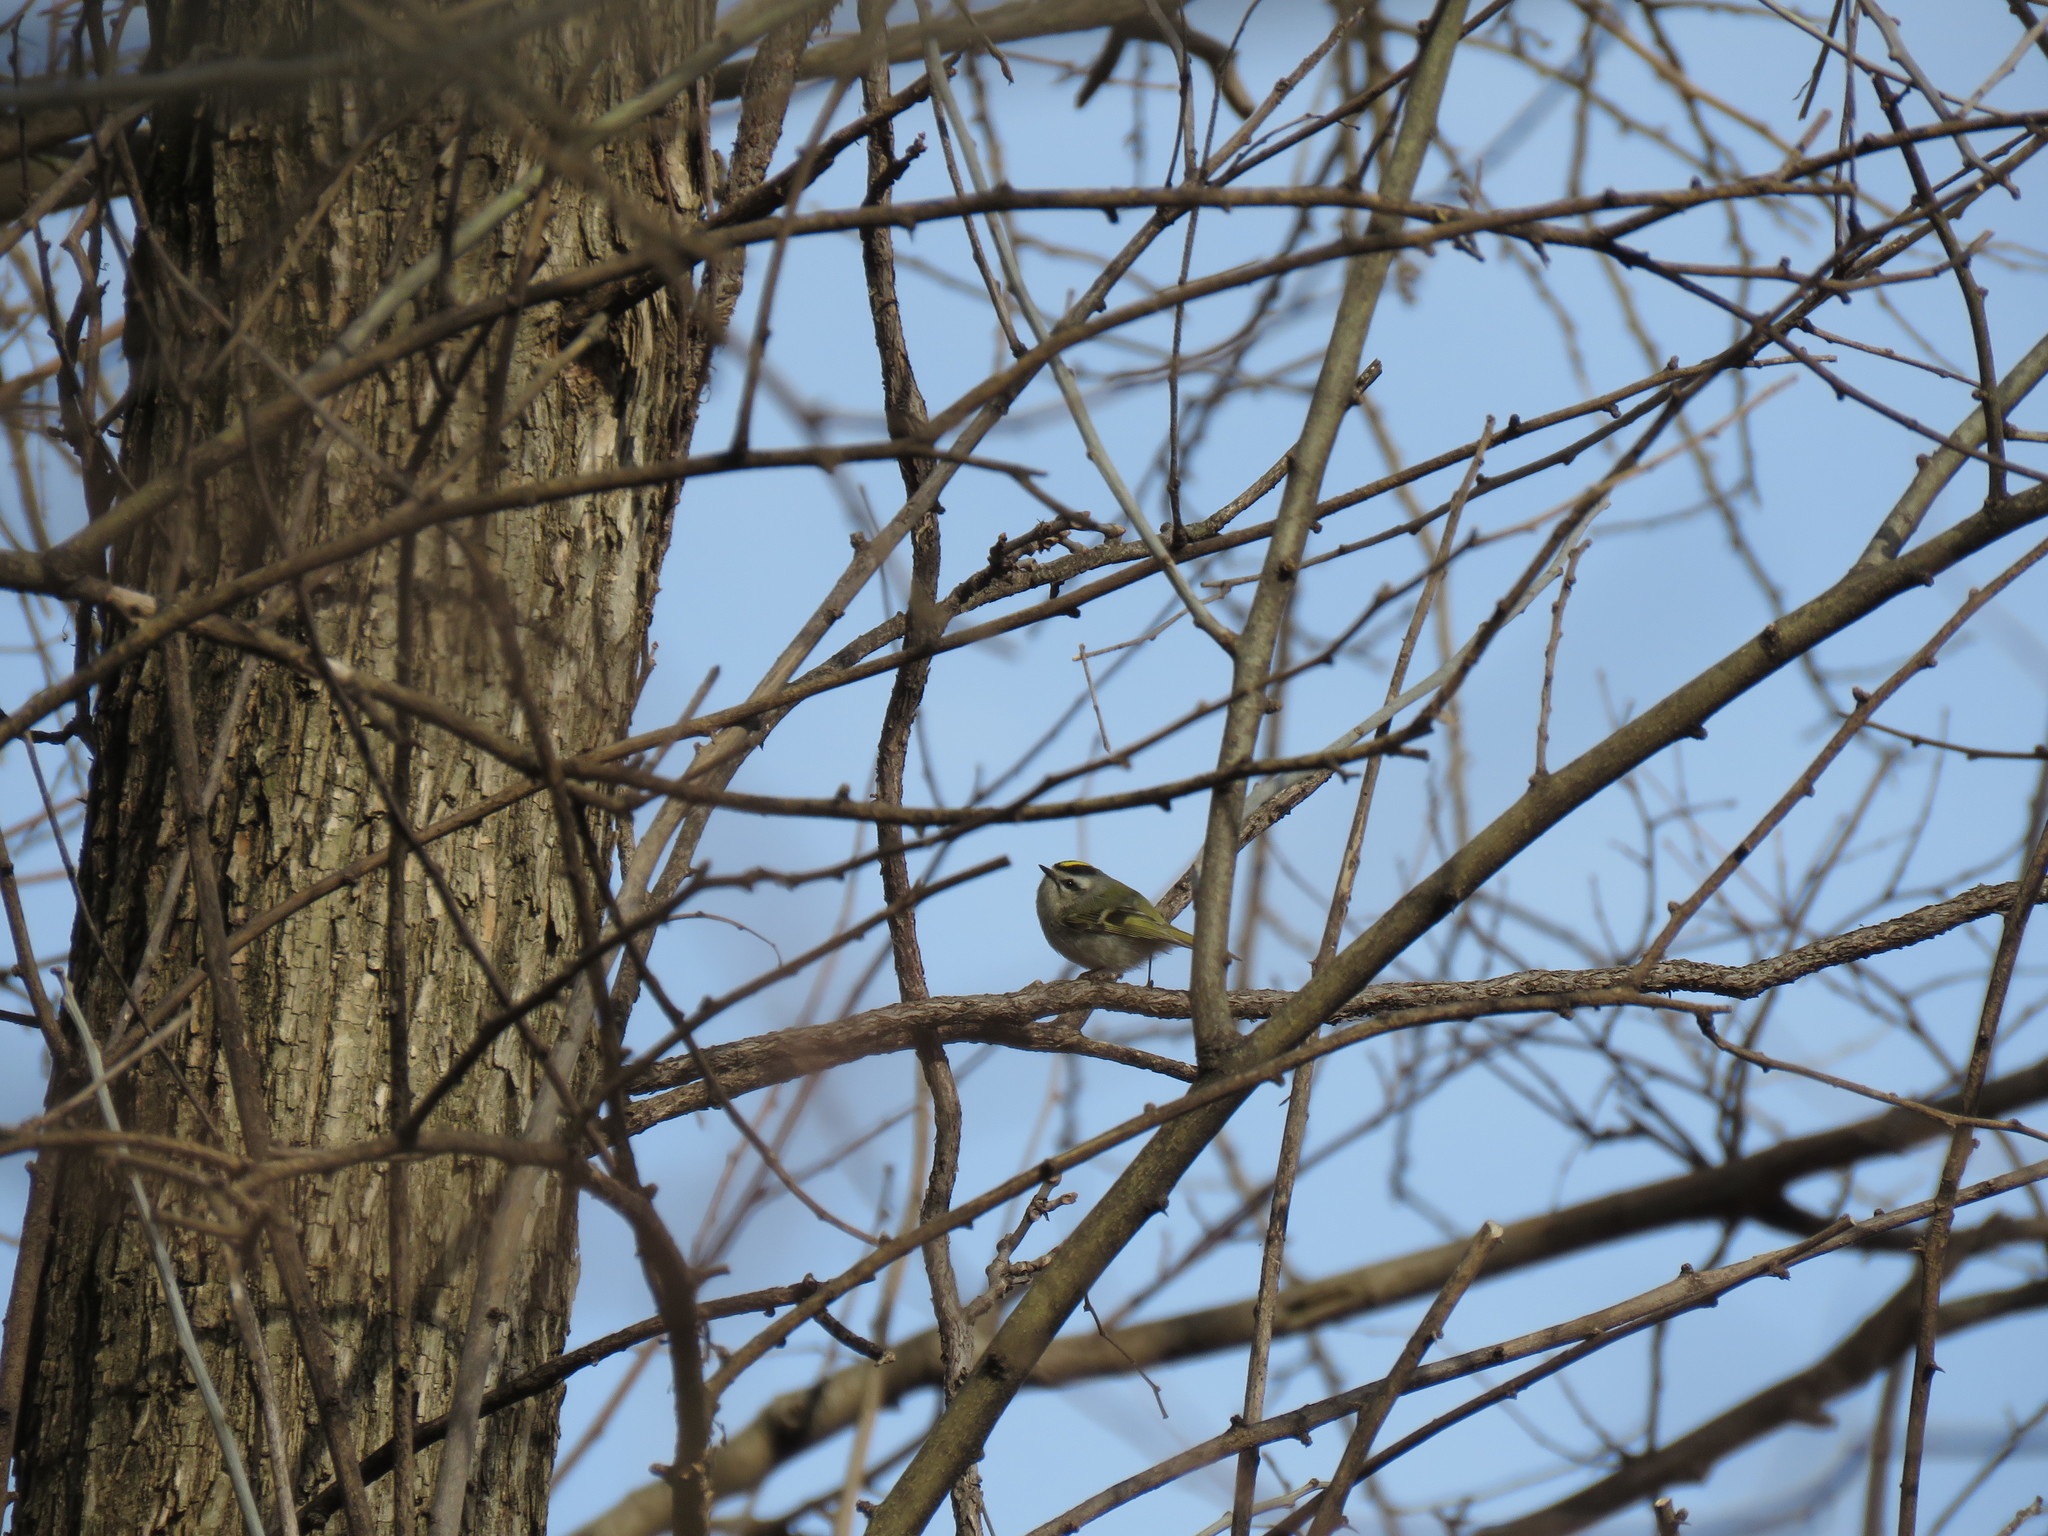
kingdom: Animalia
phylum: Chordata
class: Aves
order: Passeriformes
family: Regulidae
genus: Regulus
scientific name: Regulus satrapa
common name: Golden-crowned kinglet
